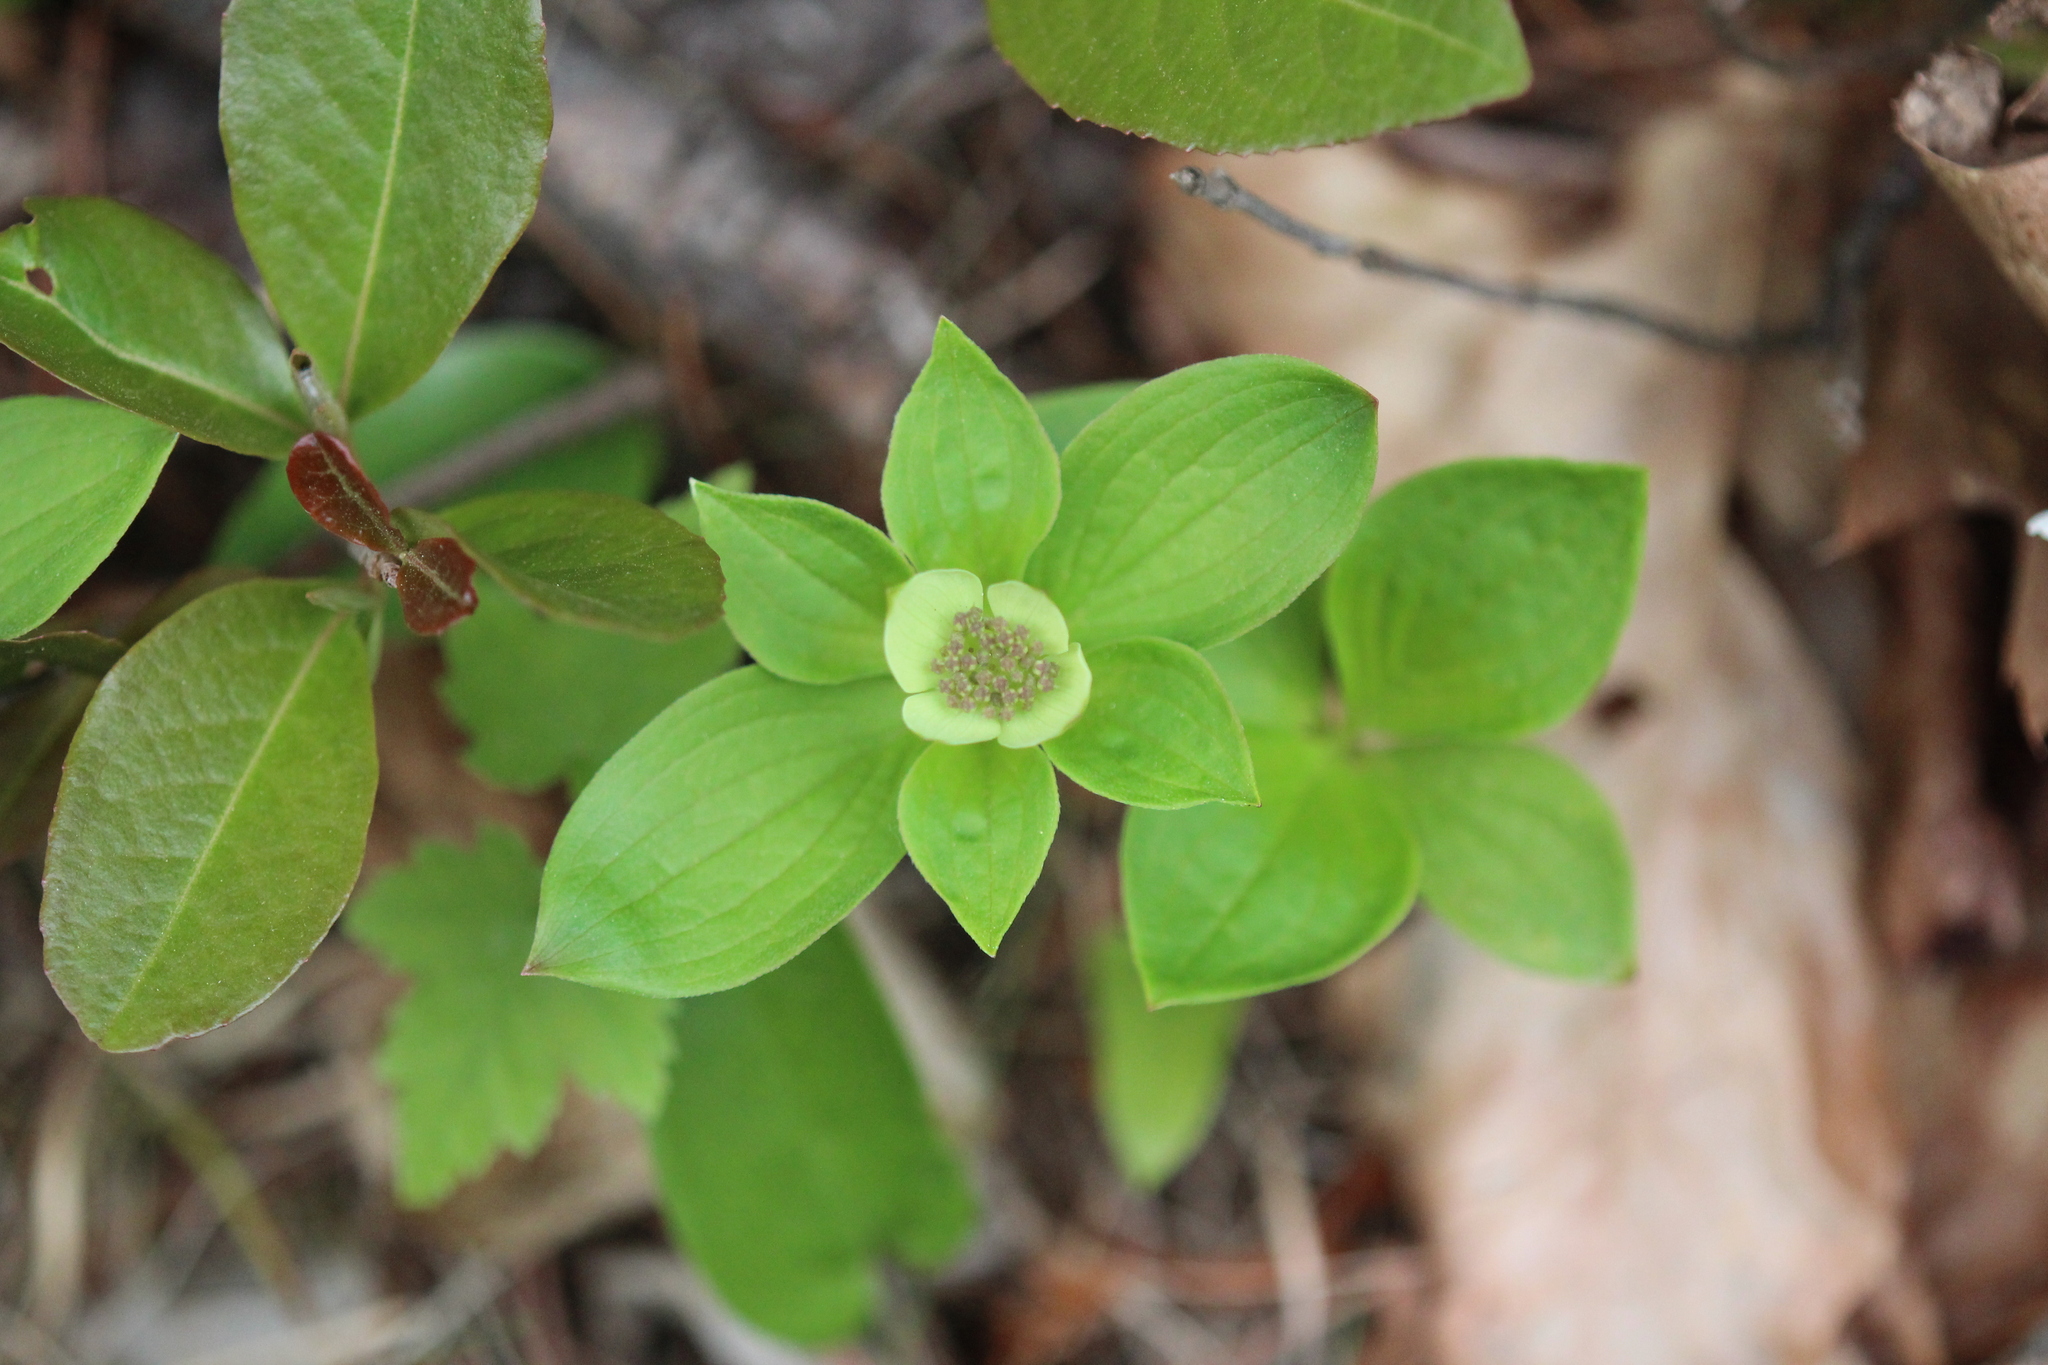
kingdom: Plantae
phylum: Tracheophyta
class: Magnoliopsida
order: Cornales
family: Cornaceae
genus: Cornus
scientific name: Cornus canadensis
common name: Creeping dogwood
